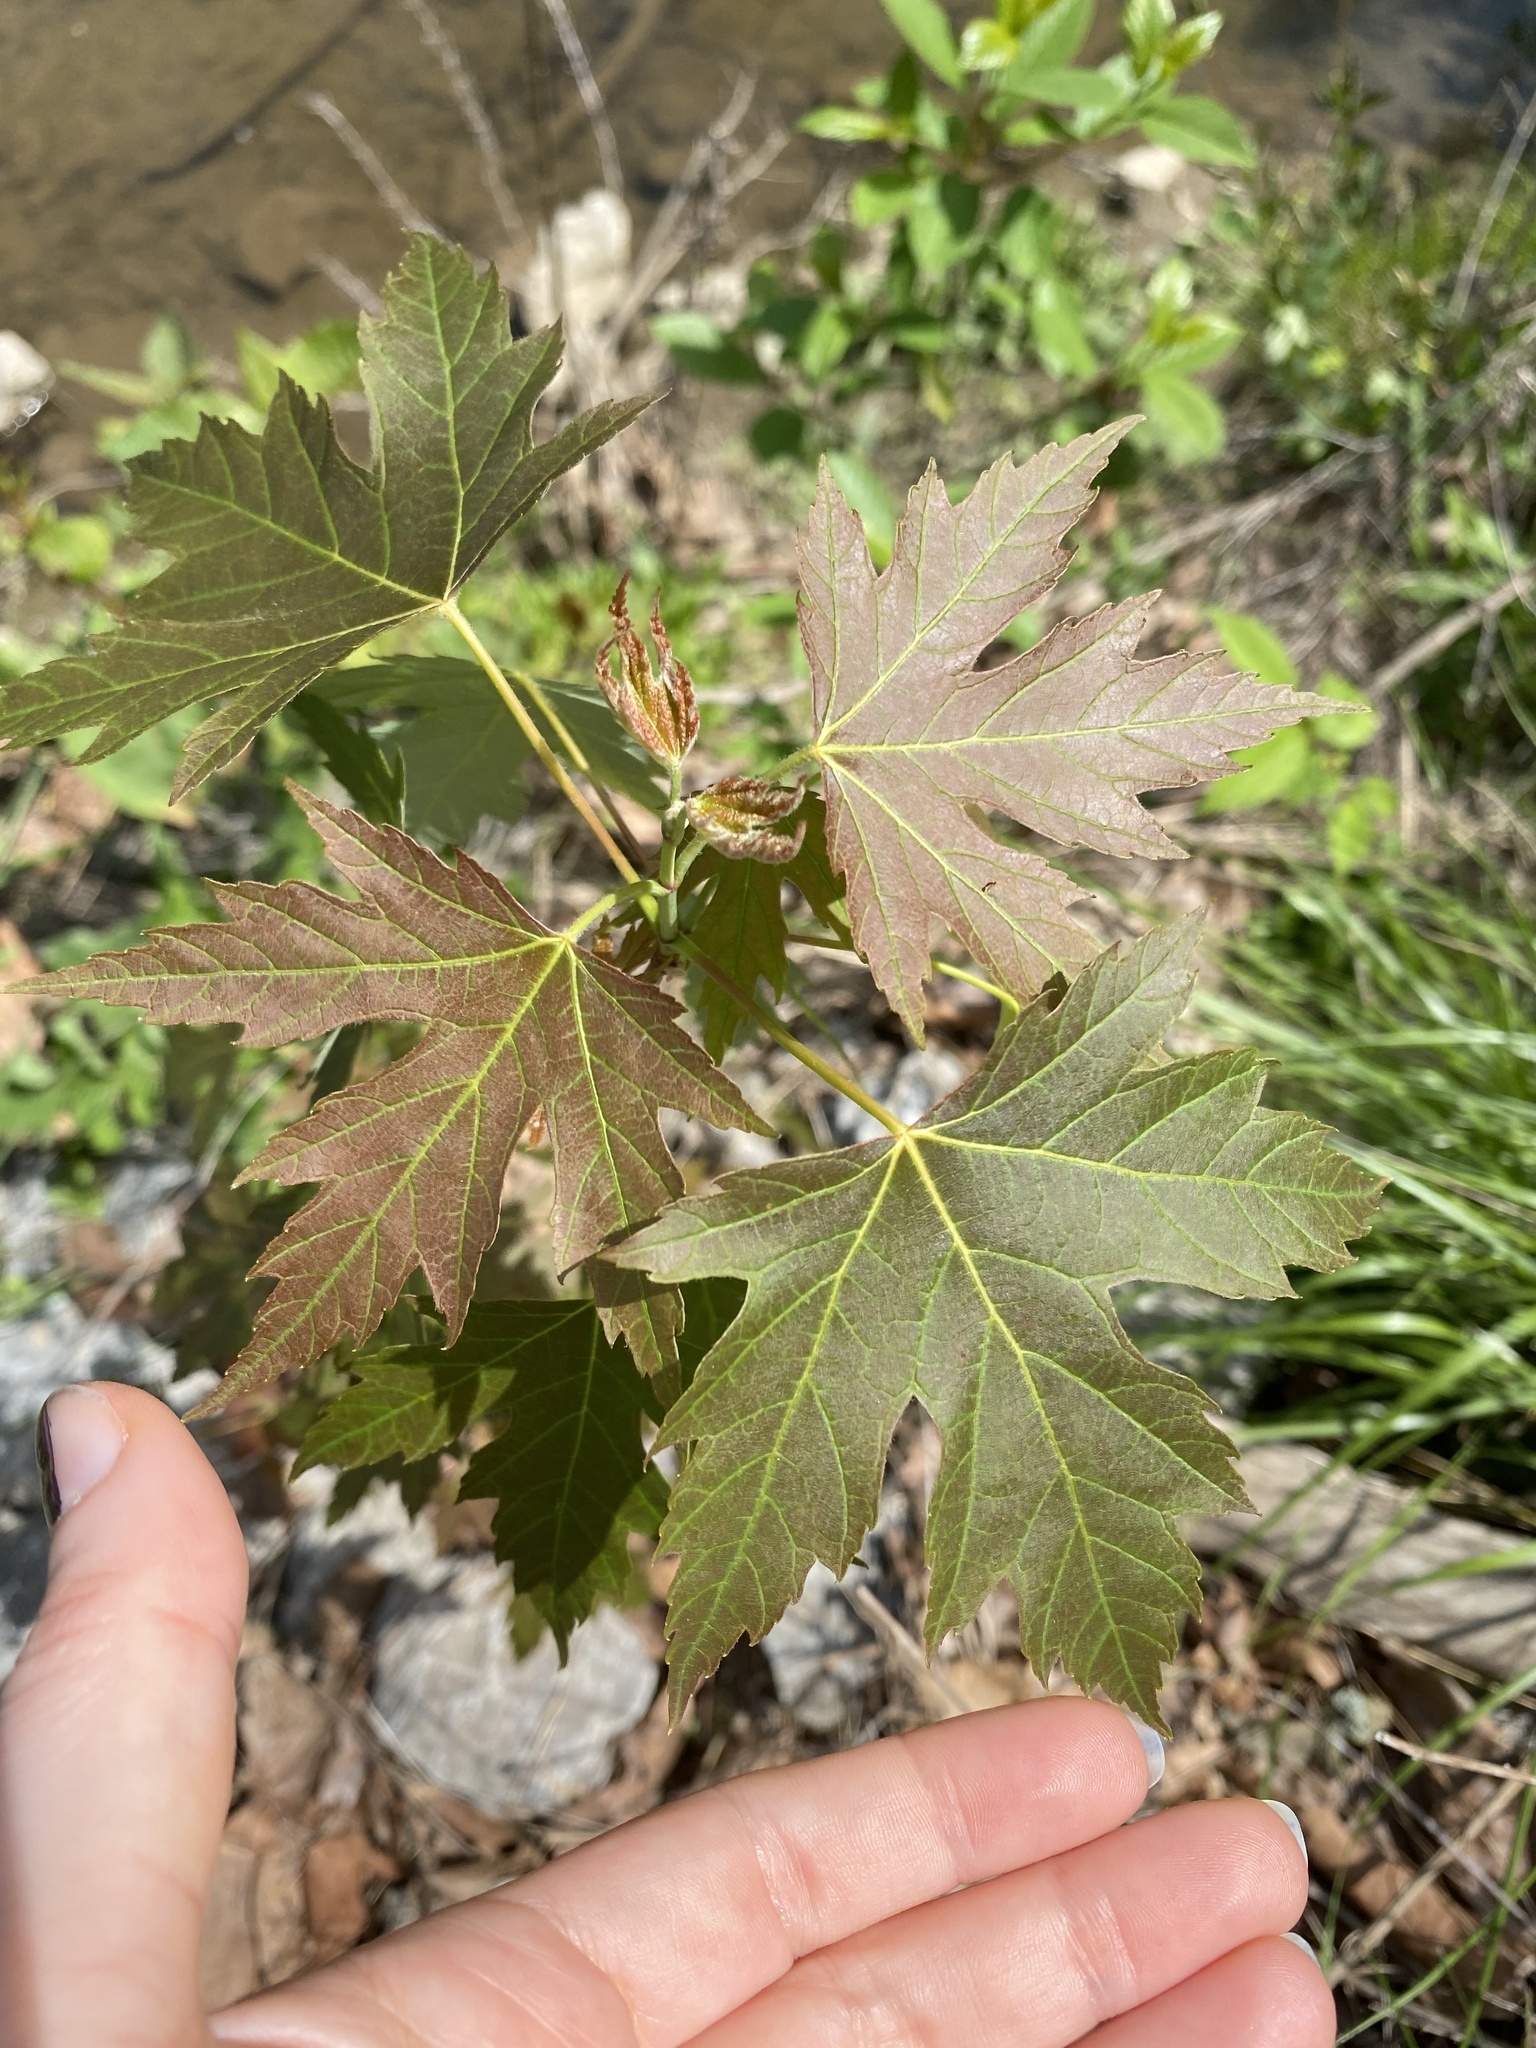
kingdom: Plantae
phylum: Tracheophyta
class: Magnoliopsida
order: Sapindales
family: Sapindaceae
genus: Acer
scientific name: Acer saccharinum
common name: Silver maple
